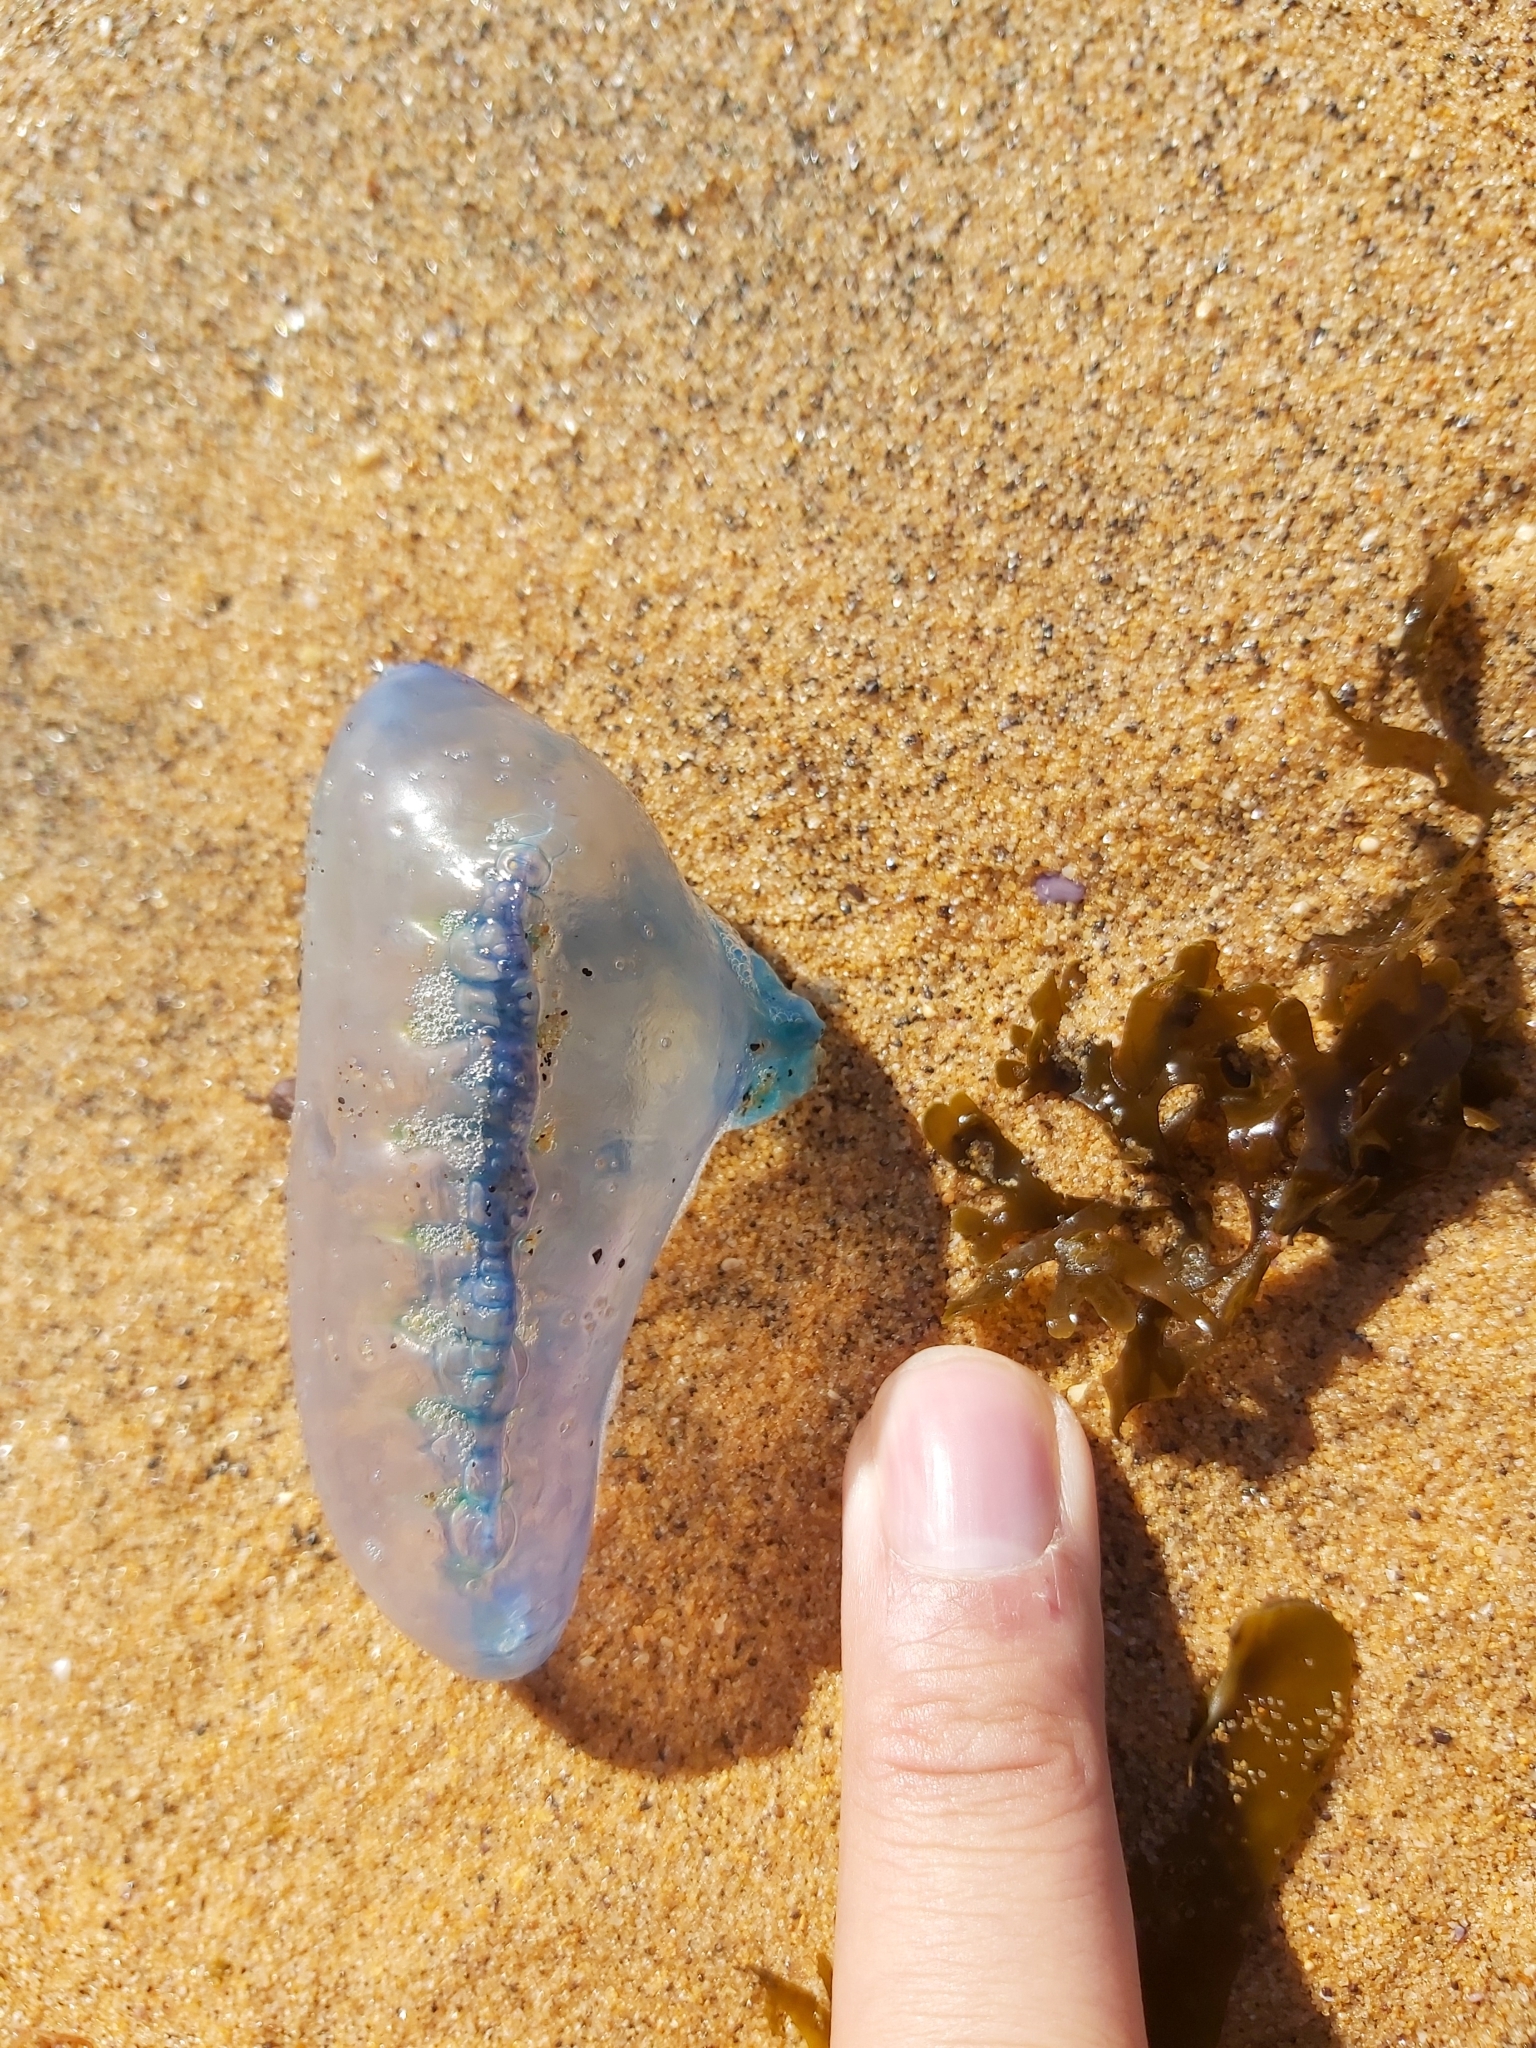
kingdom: Animalia
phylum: Cnidaria
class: Hydrozoa
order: Siphonophorae
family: Physaliidae
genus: Physalia
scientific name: Physalia physalis
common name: Portuguese man-of-war
